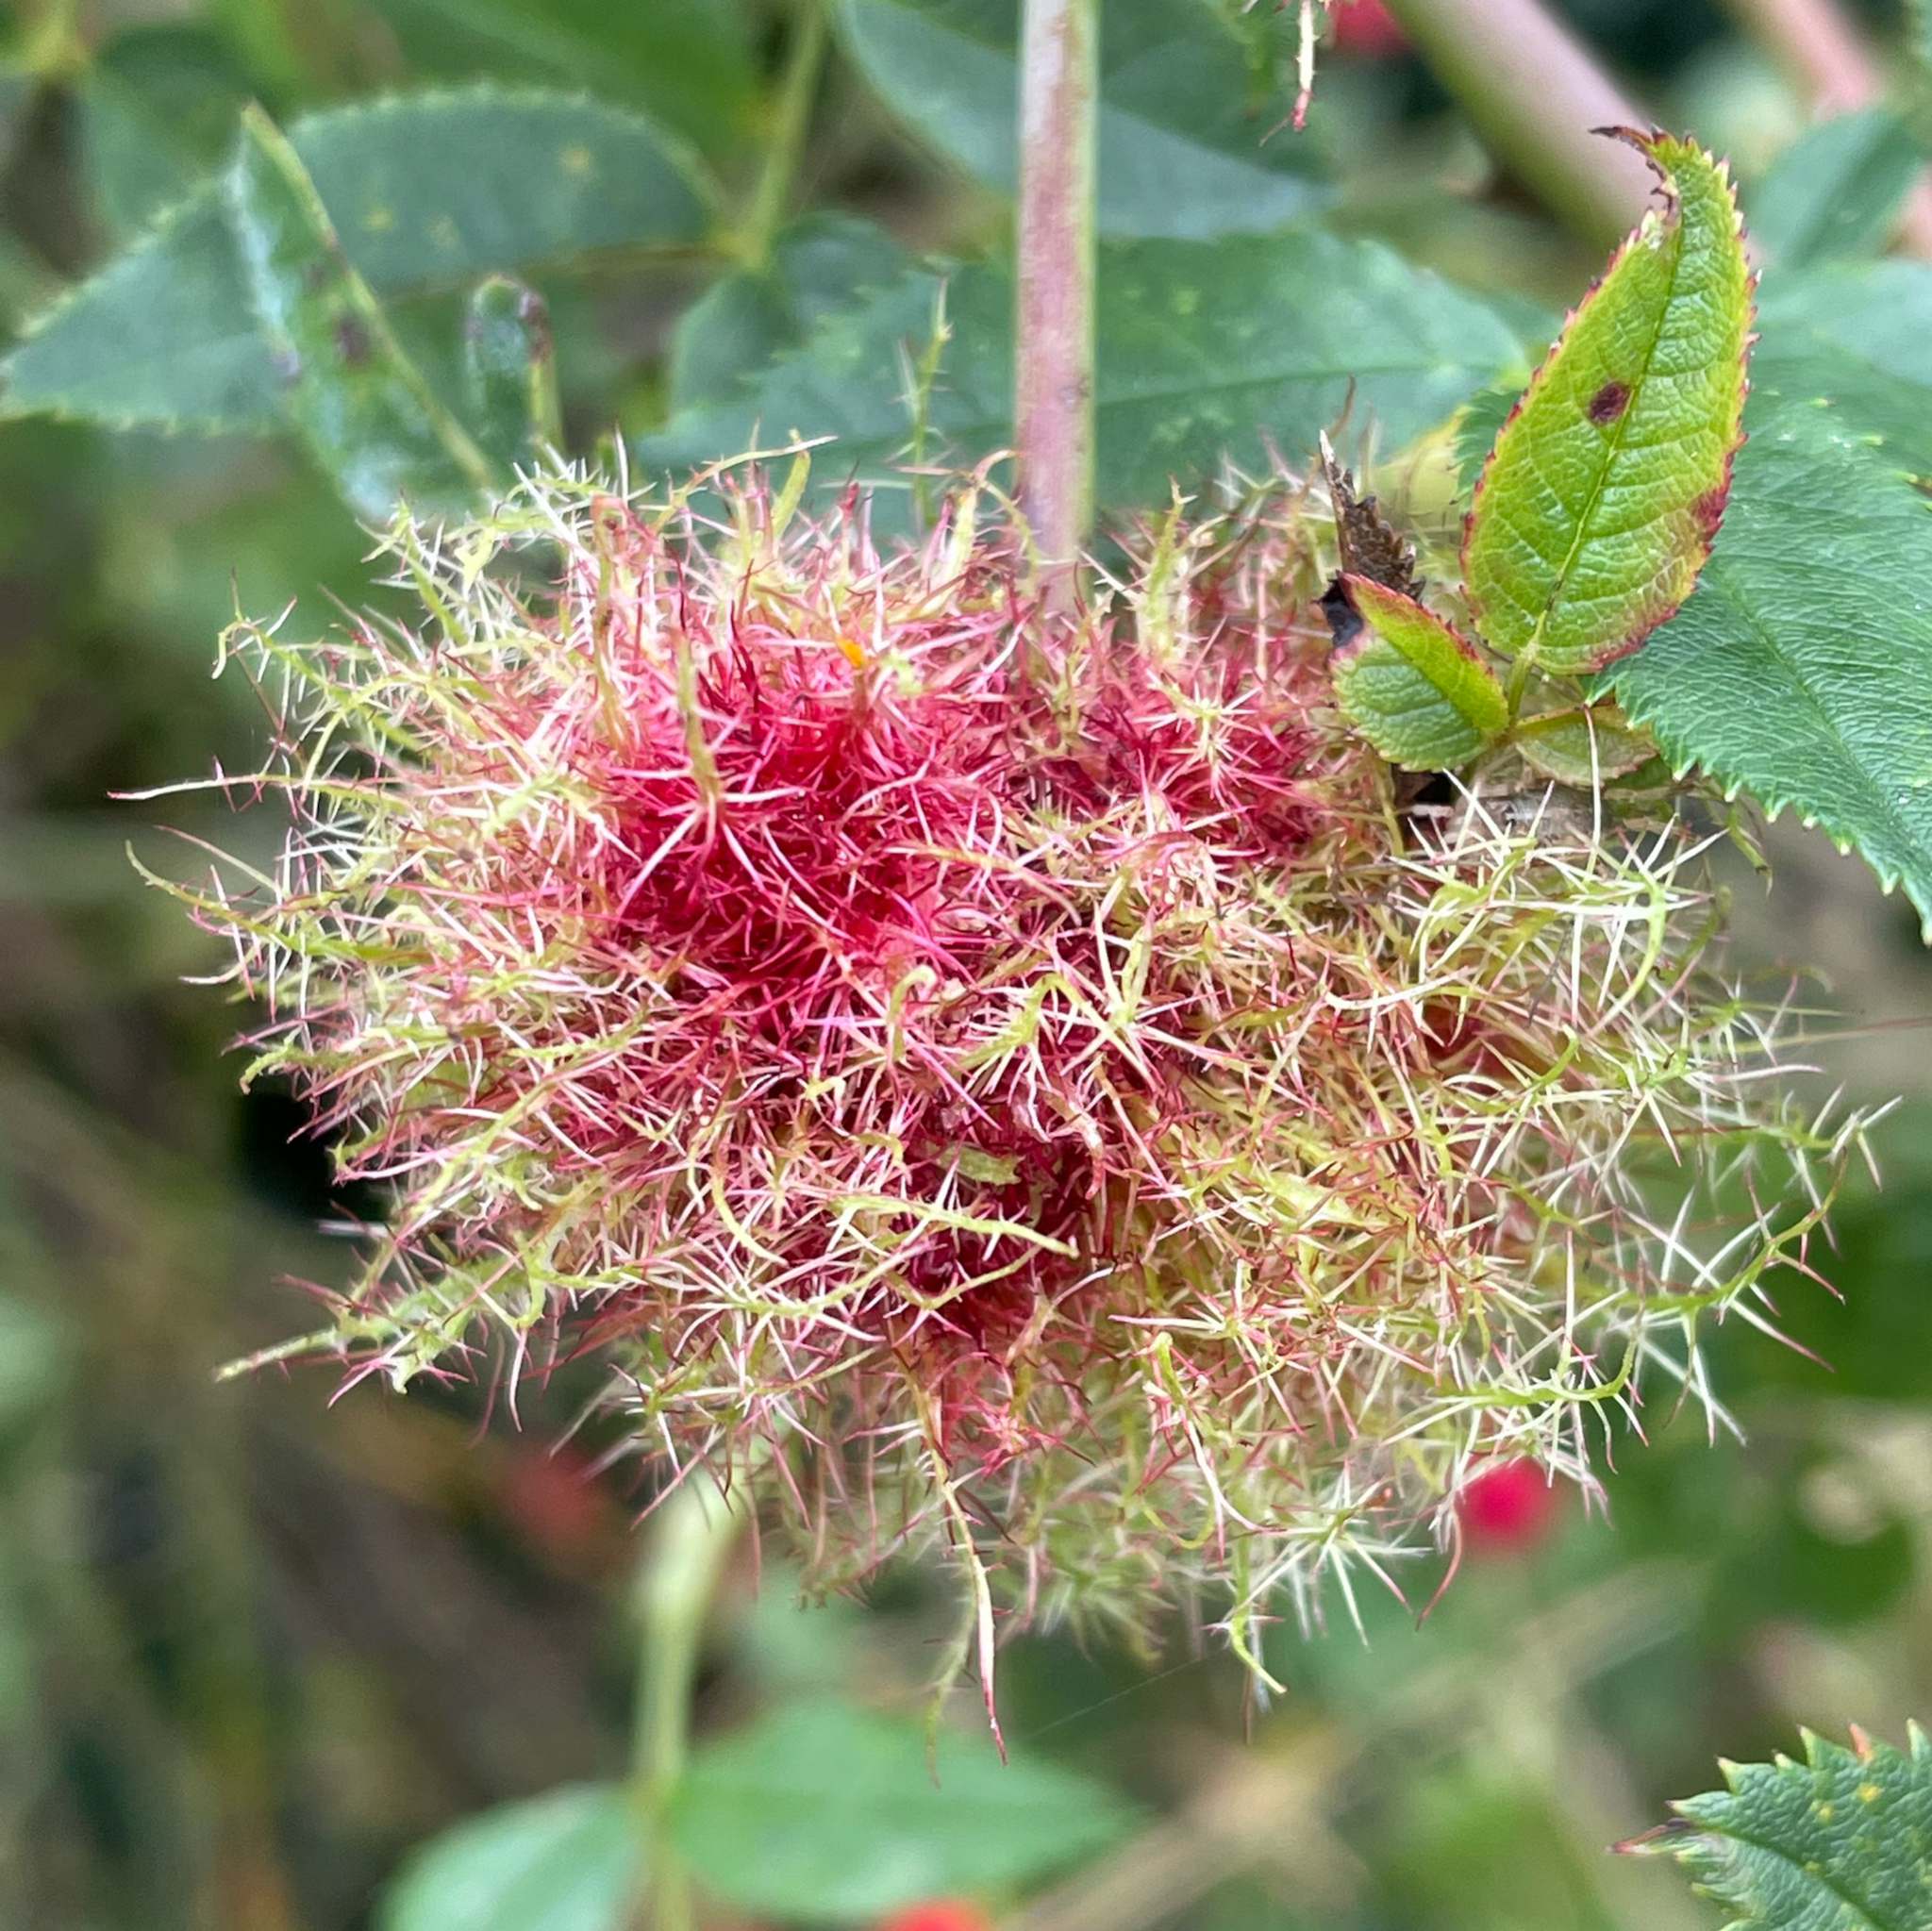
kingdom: Animalia
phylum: Arthropoda
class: Insecta
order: Hymenoptera
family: Cynipidae
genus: Diplolepis
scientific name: Diplolepis rosae
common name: Bedeguar gall
